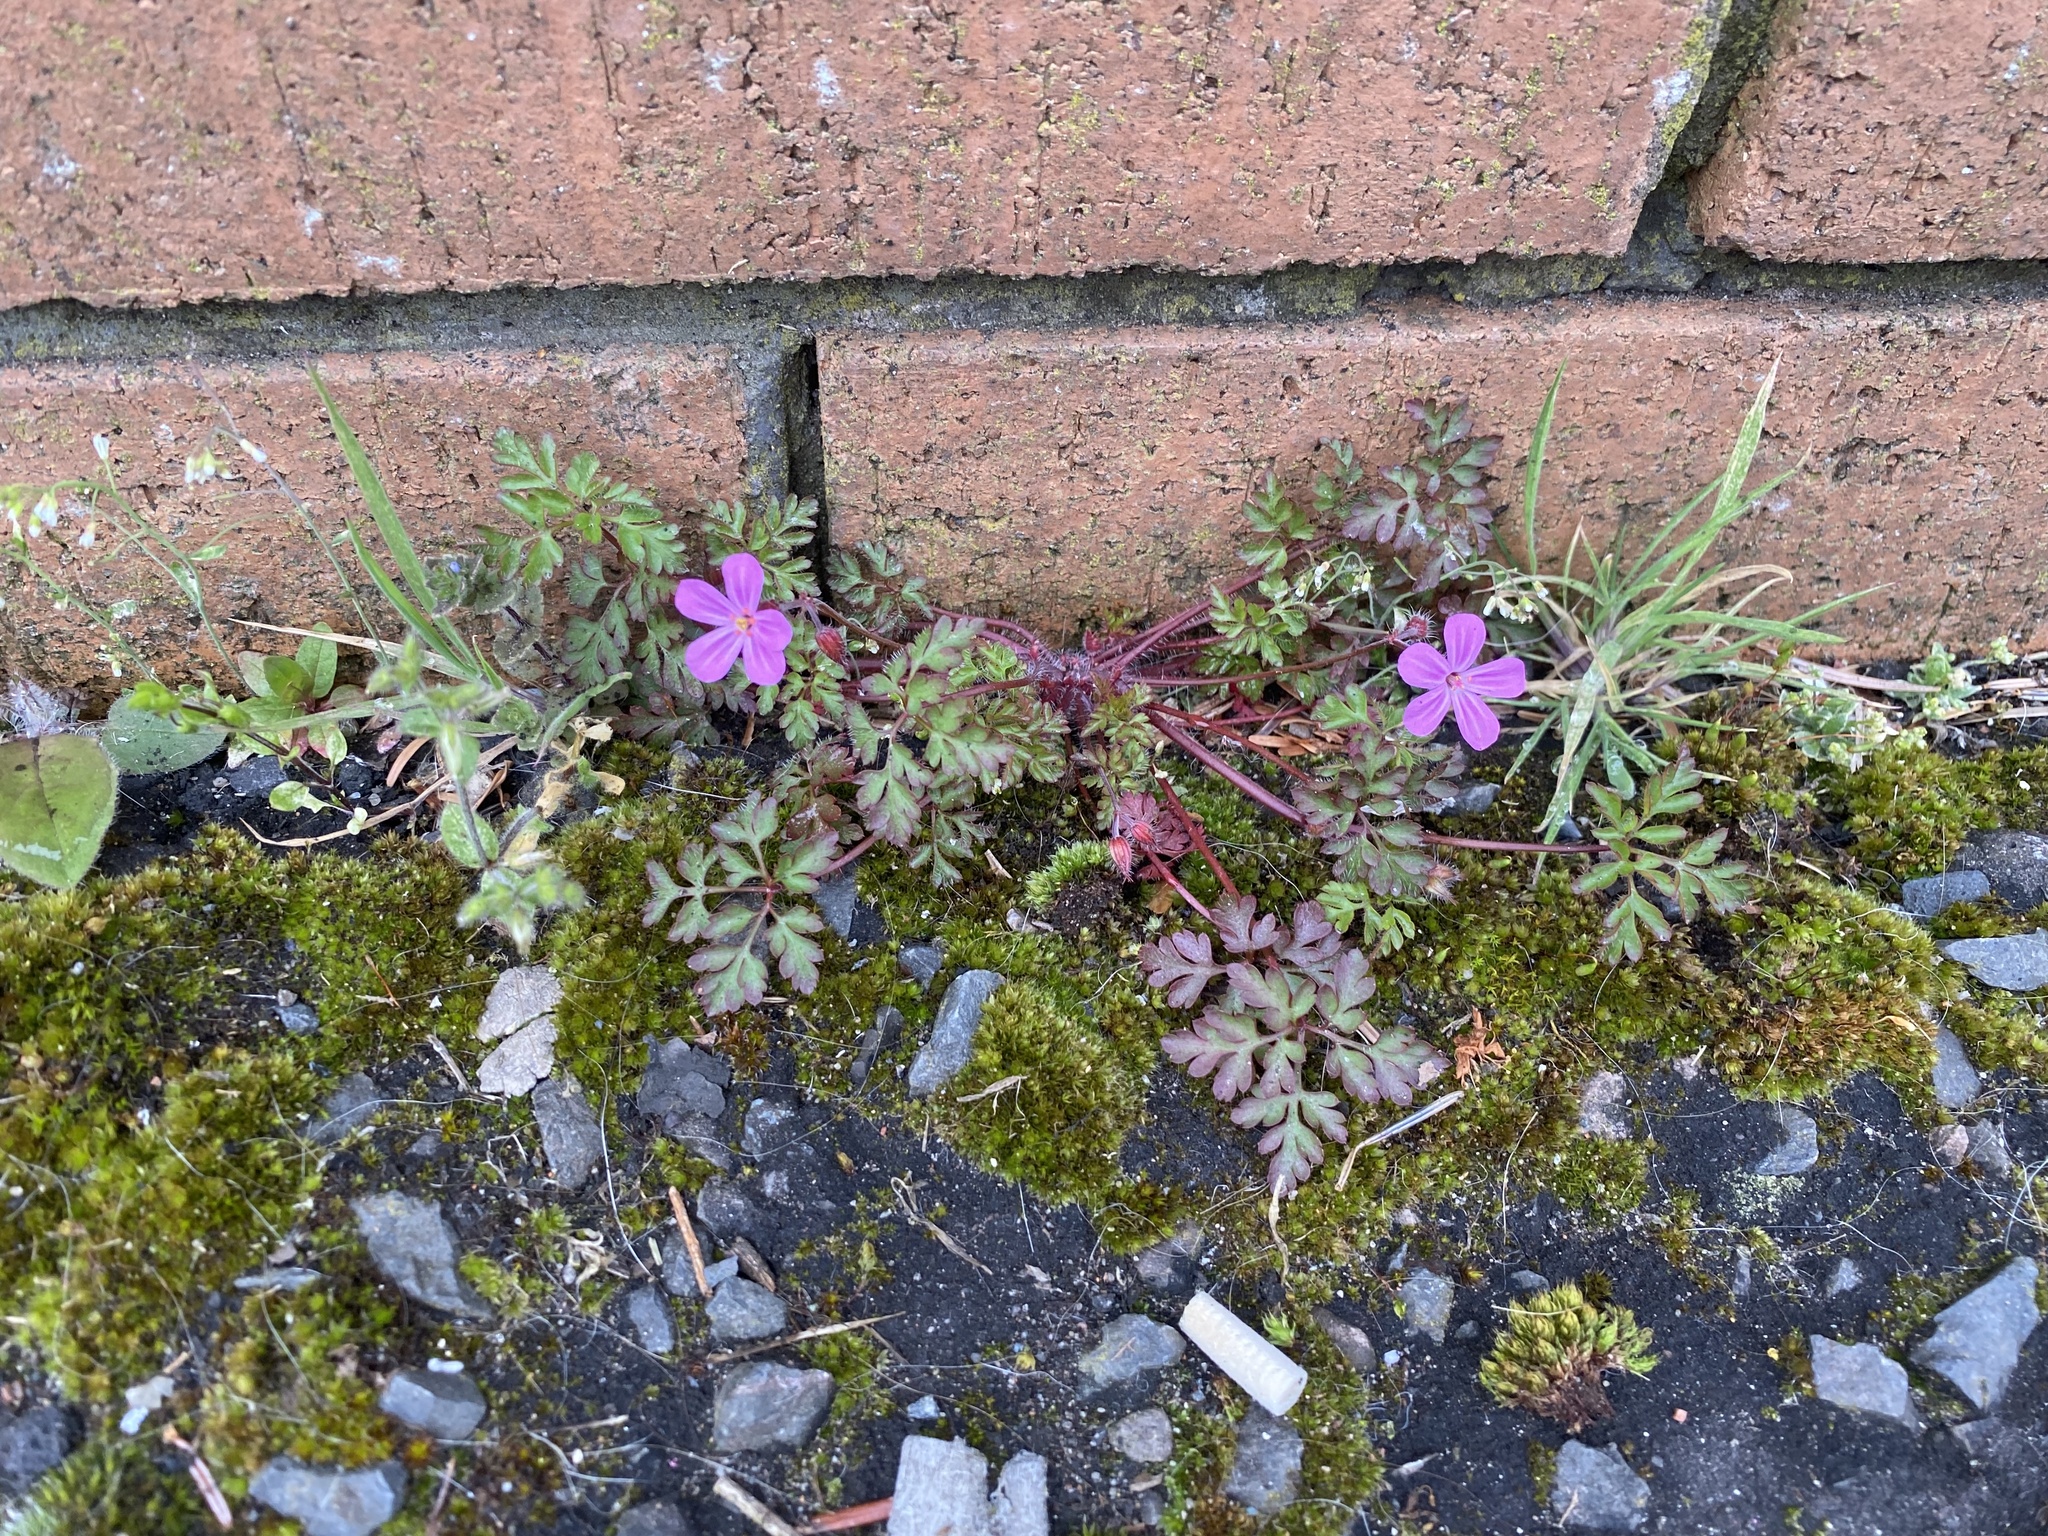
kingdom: Plantae
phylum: Tracheophyta
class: Magnoliopsida
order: Geraniales
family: Geraniaceae
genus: Geranium
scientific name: Geranium robertianum
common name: Herb-robert
